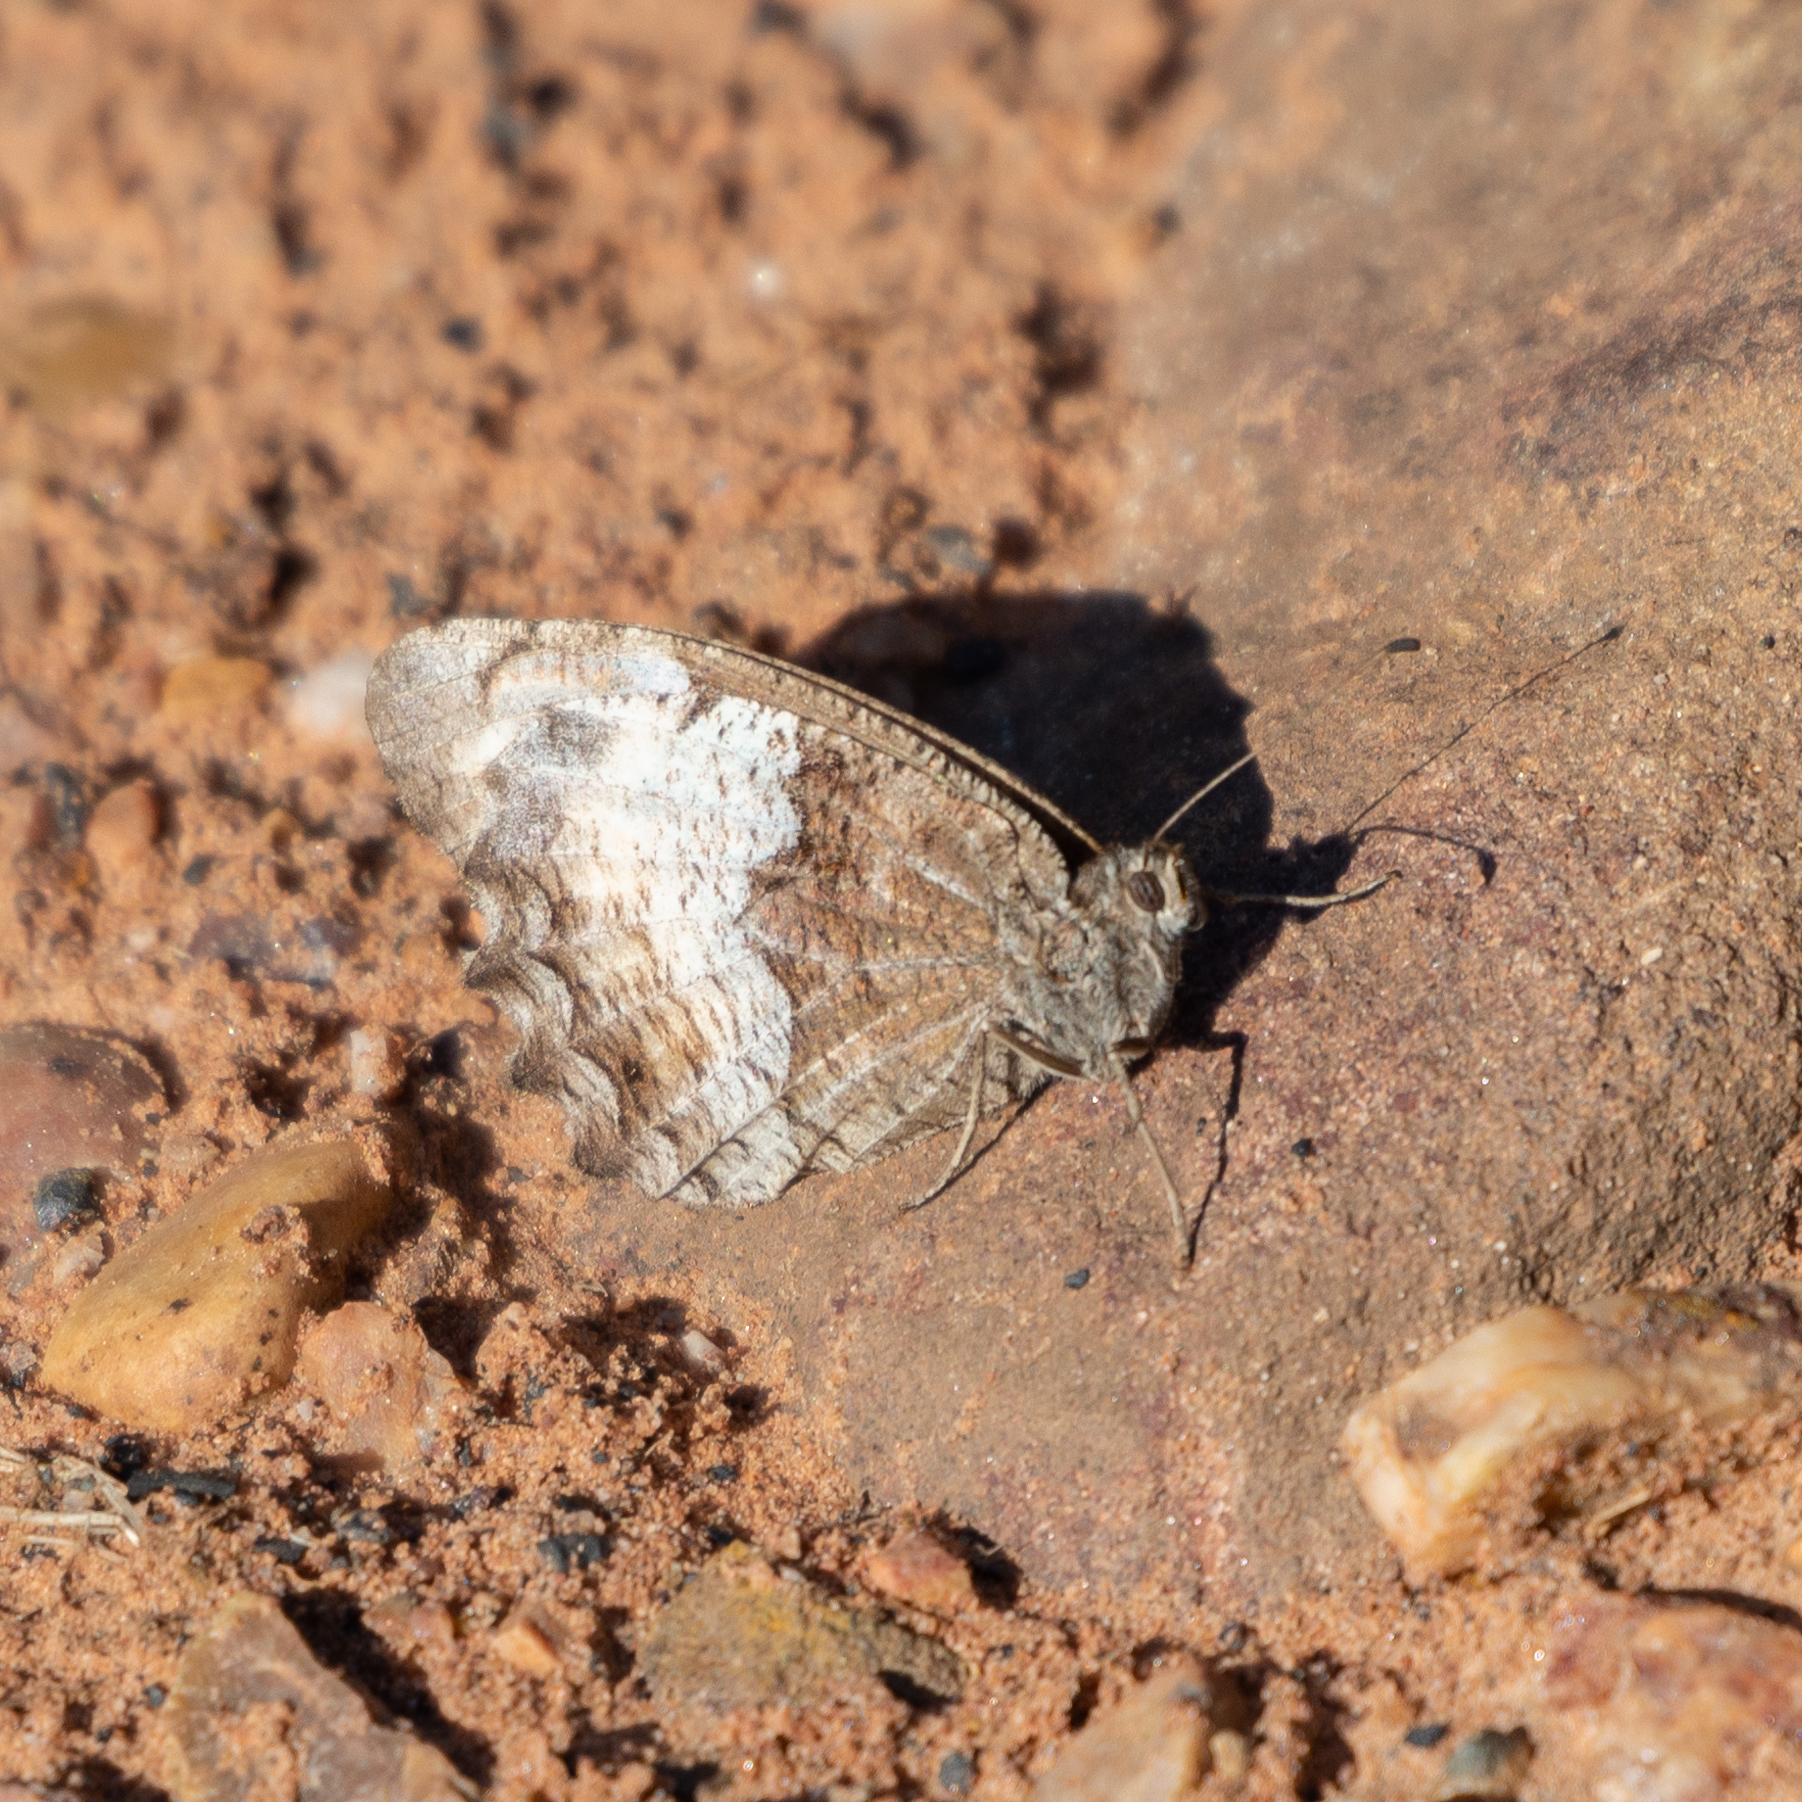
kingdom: Animalia
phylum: Arthropoda
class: Insecta
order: Lepidoptera
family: Nymphalidae
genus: Hipparchia
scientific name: Hipparchia hermione
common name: Rock grayling
